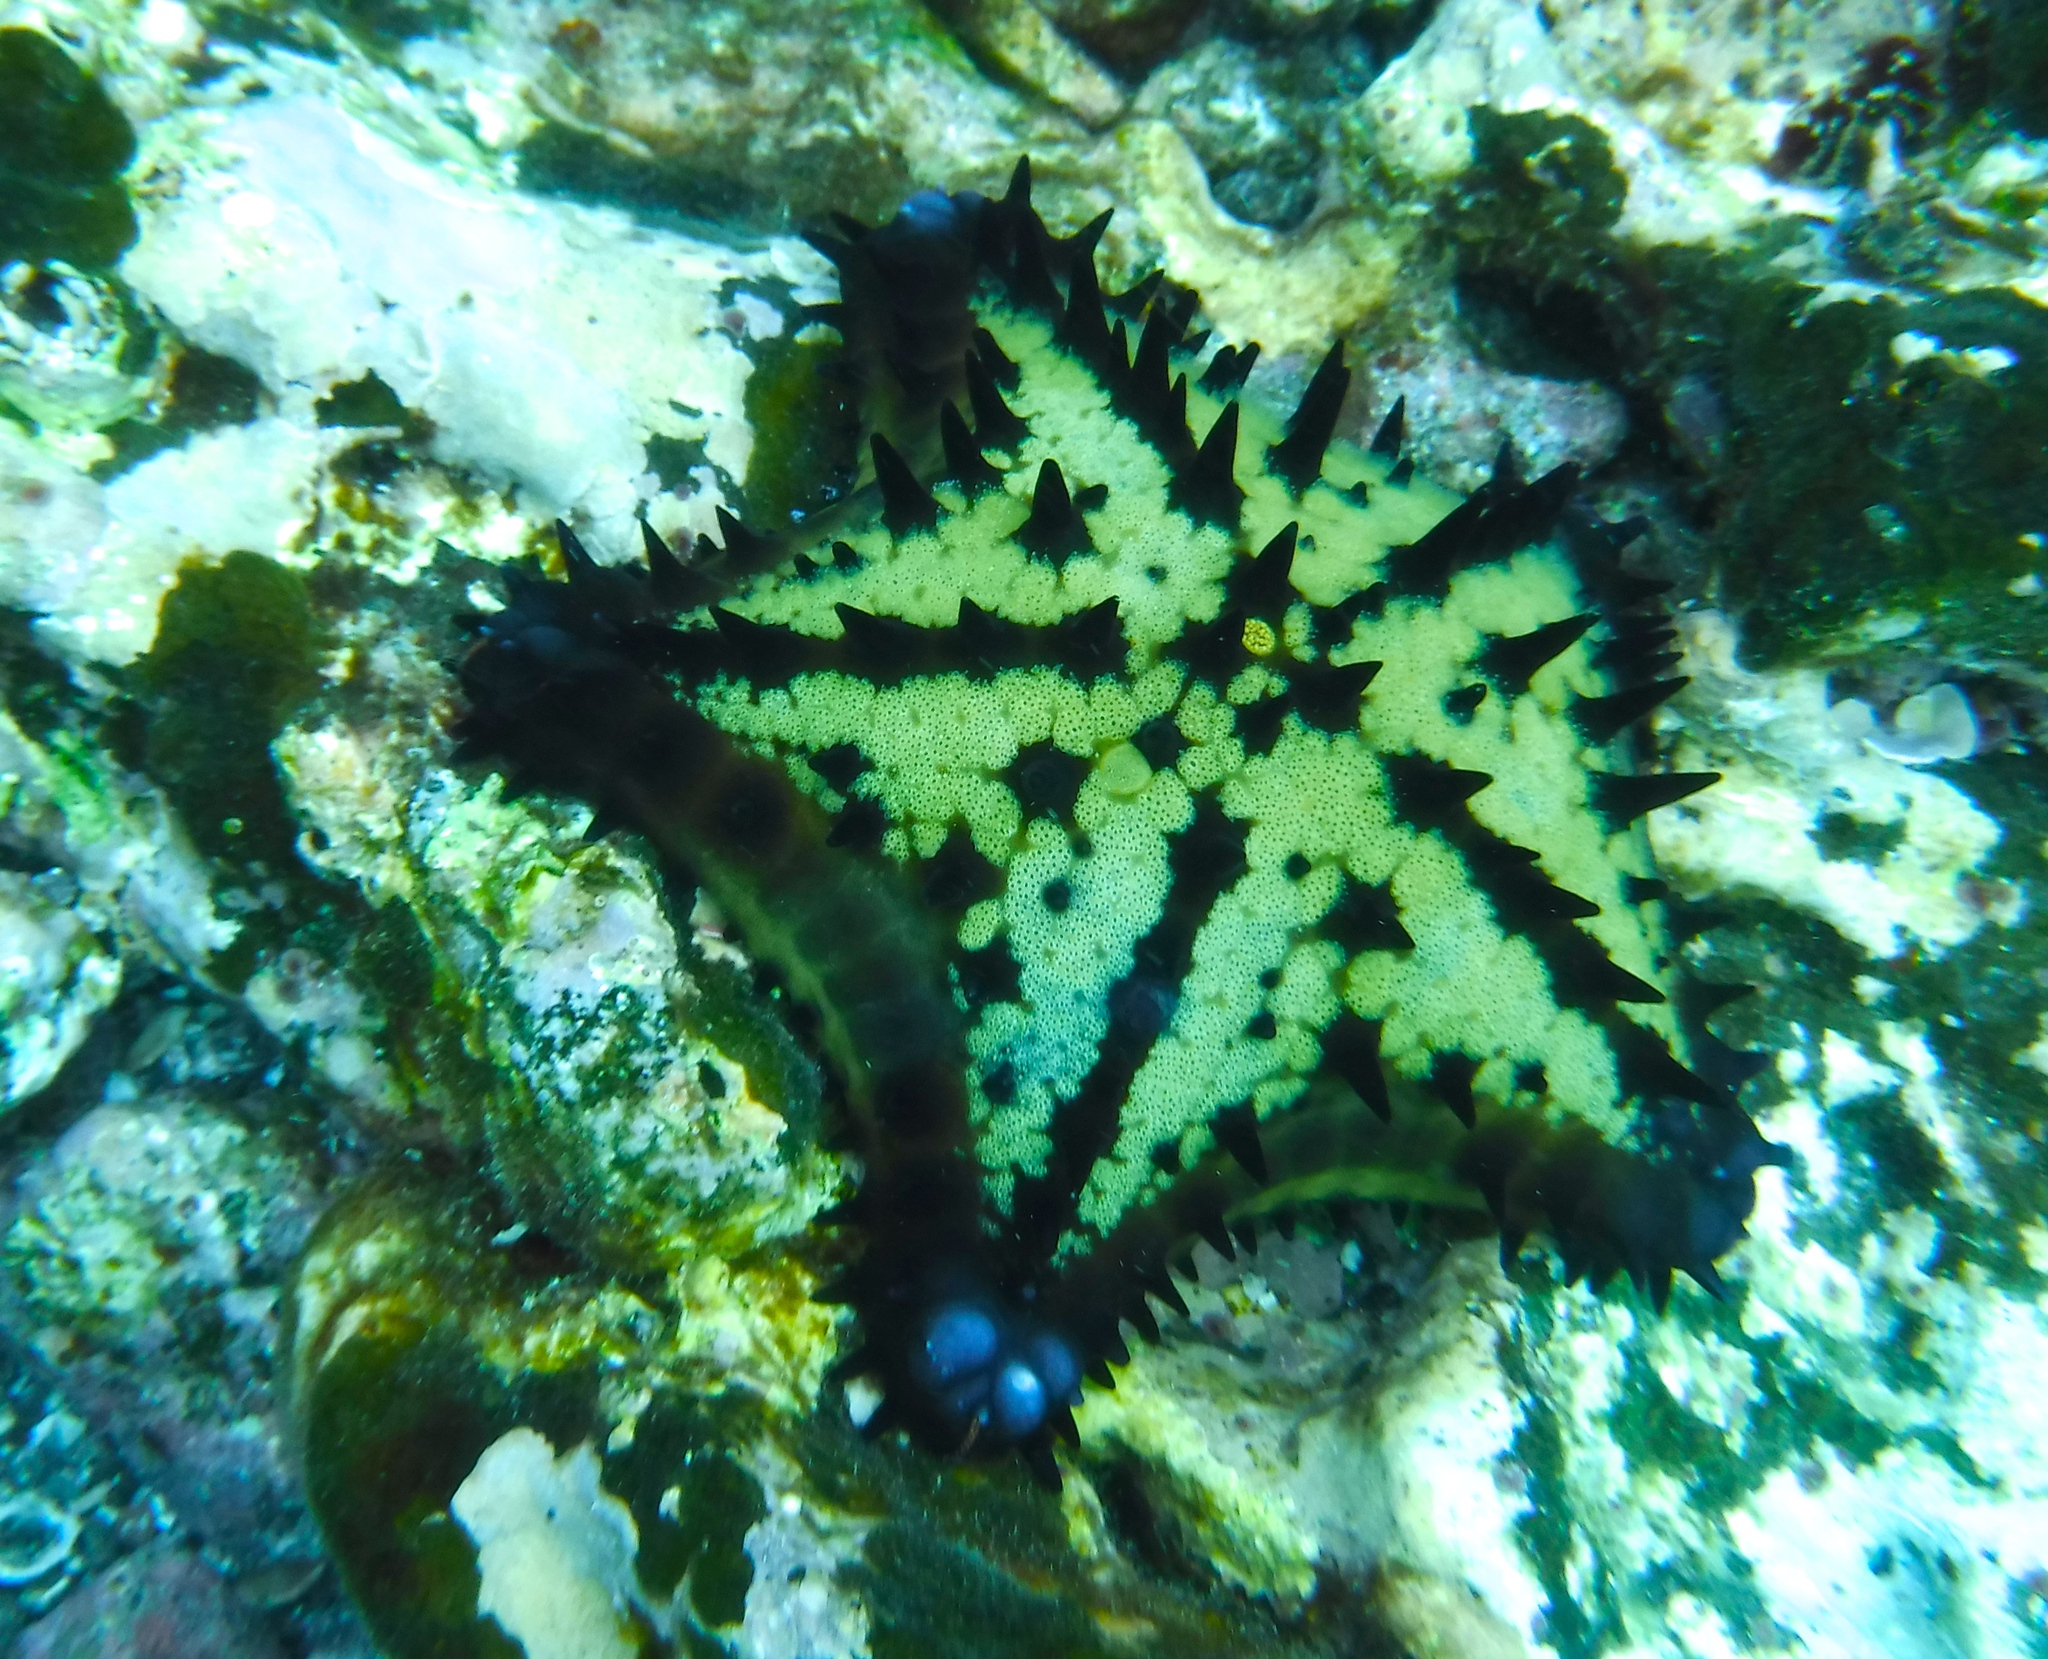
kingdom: Animalia
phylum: Echinodermata
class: Asteroidea
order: Valvatida
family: Oreasteridae
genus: Nidorellia
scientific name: Nidorellia armata
